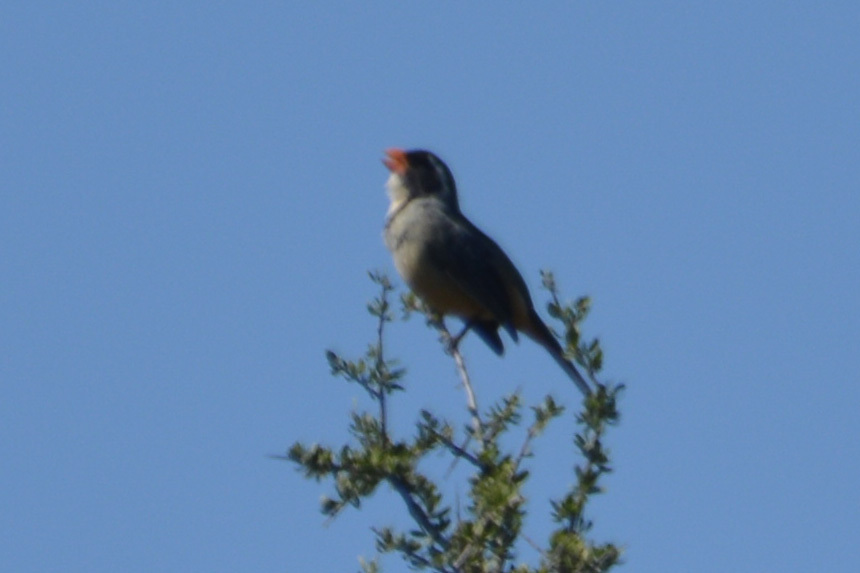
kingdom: Animalia
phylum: Chordata
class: Aves
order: Passeriformes
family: Thraupidae
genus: Saltator
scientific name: Saltator aurantiirostris
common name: Golden-billed saltator
